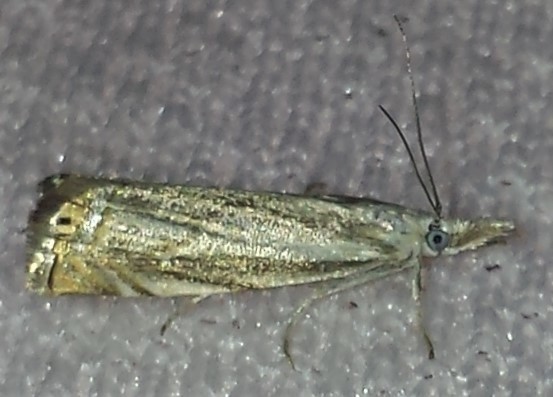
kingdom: Animalia
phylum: Arthropoda
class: Insecta
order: Lepidoptera
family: Crambidae
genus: Chrysoteuchia
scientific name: Chrysoteuchia topiarius
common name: Topiary grass-veneer
